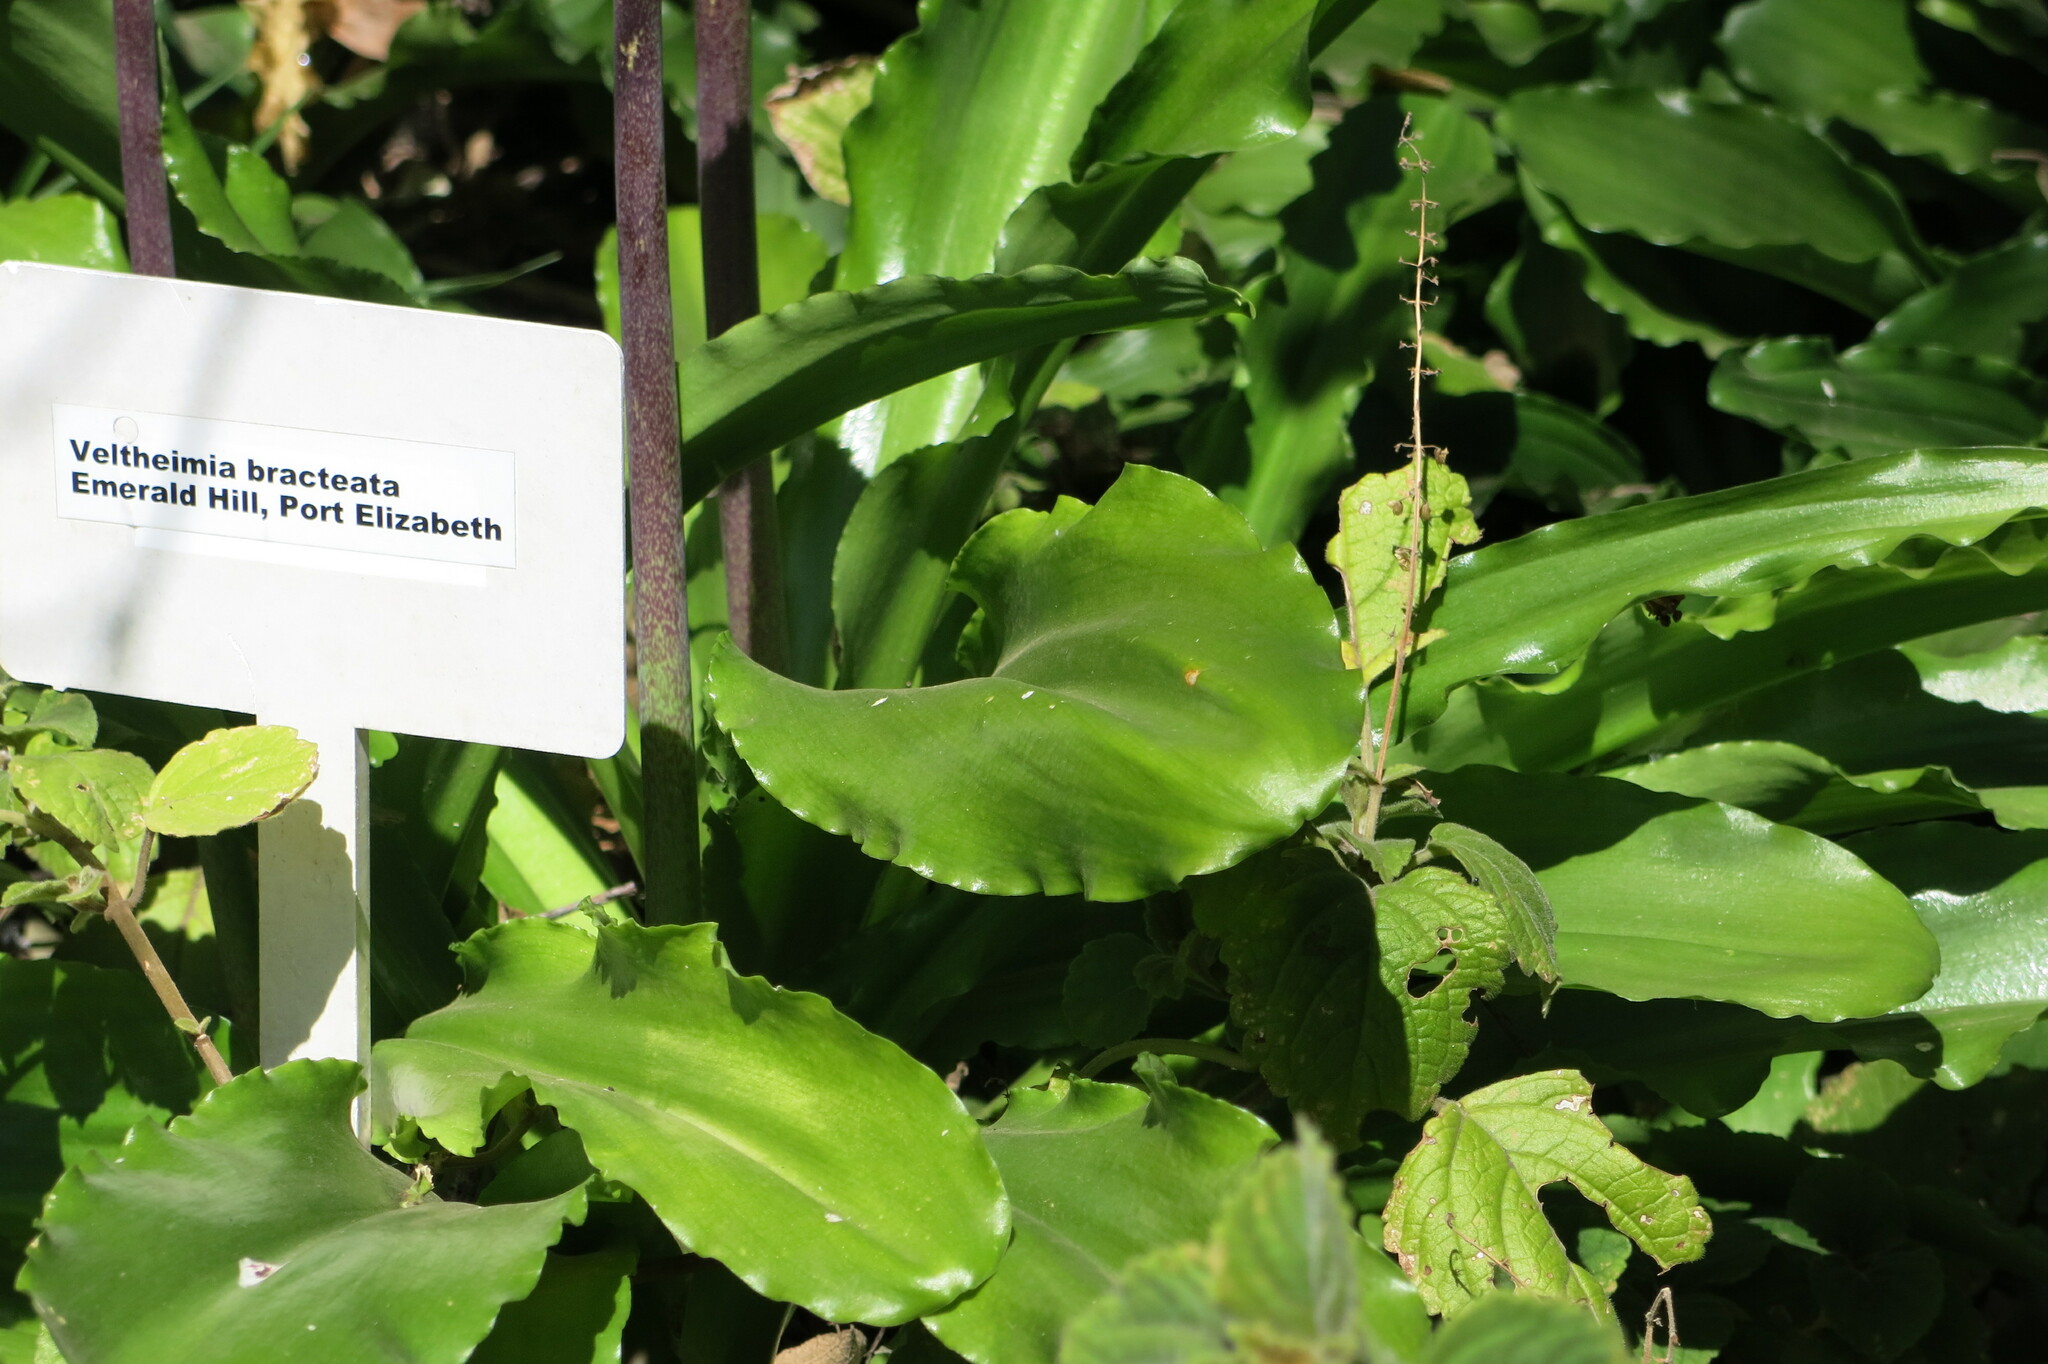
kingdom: Plantae
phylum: Tracheophyta
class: Liliopsida
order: Asparagales
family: Asparagaceae
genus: Veltheimia
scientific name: Veltheimia bracteata
